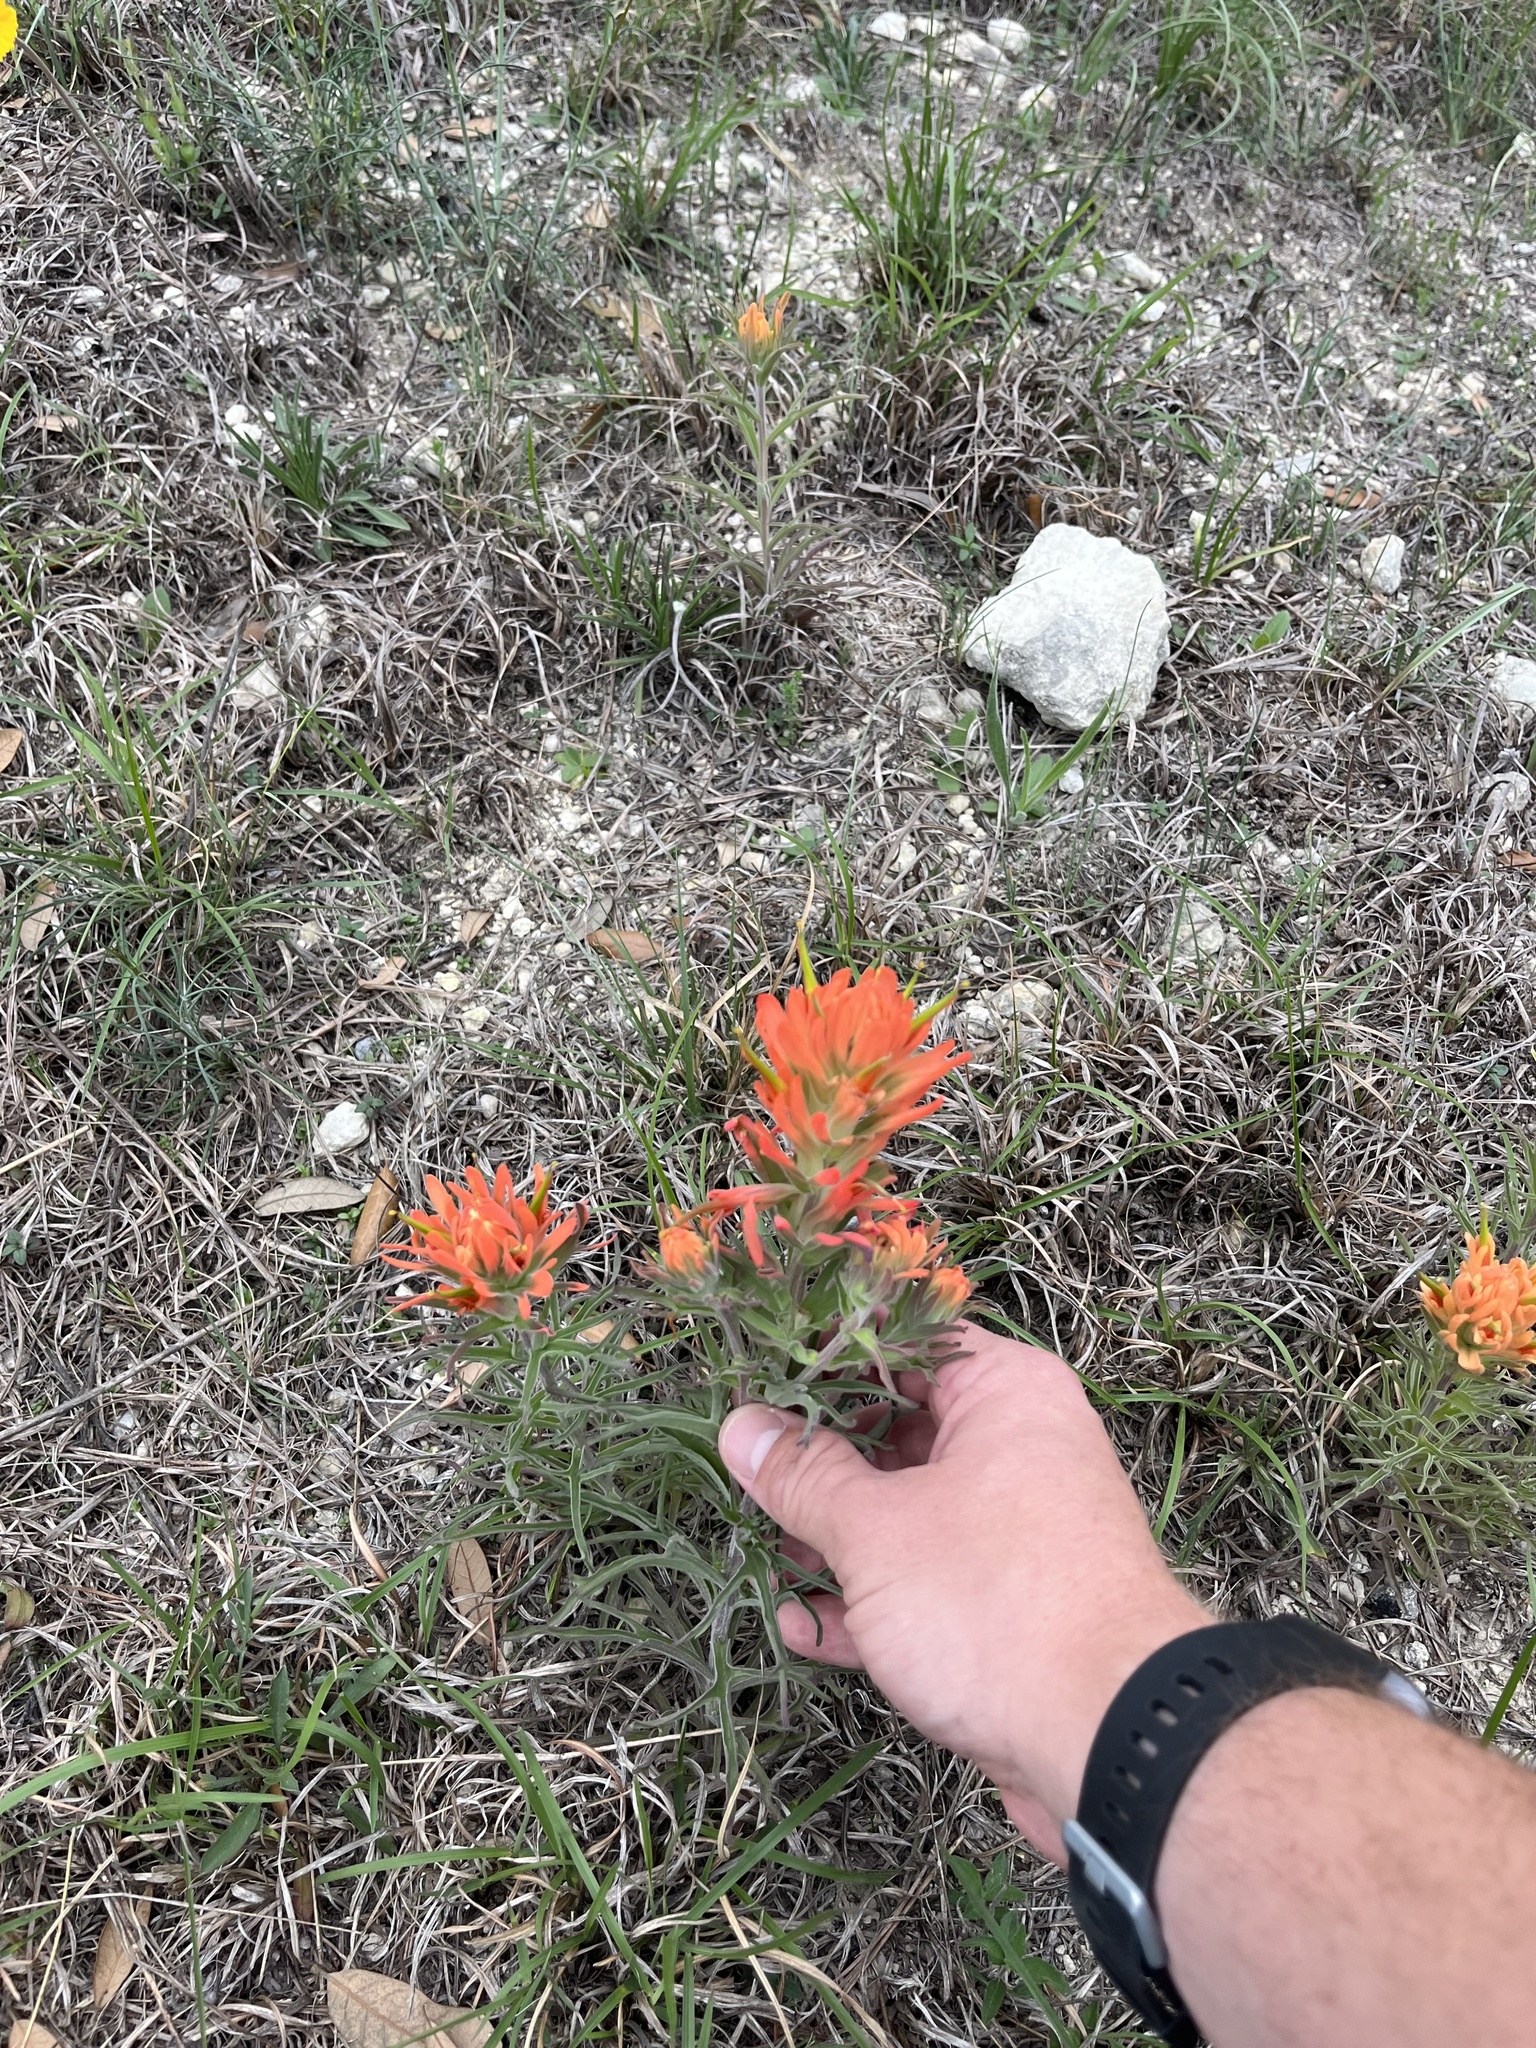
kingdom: Plantae
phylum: Tracheophyta
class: Magnoliopsida
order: Lamiales
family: Orobanchaceae
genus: Castilleja
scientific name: Castilleja lindheimeri
